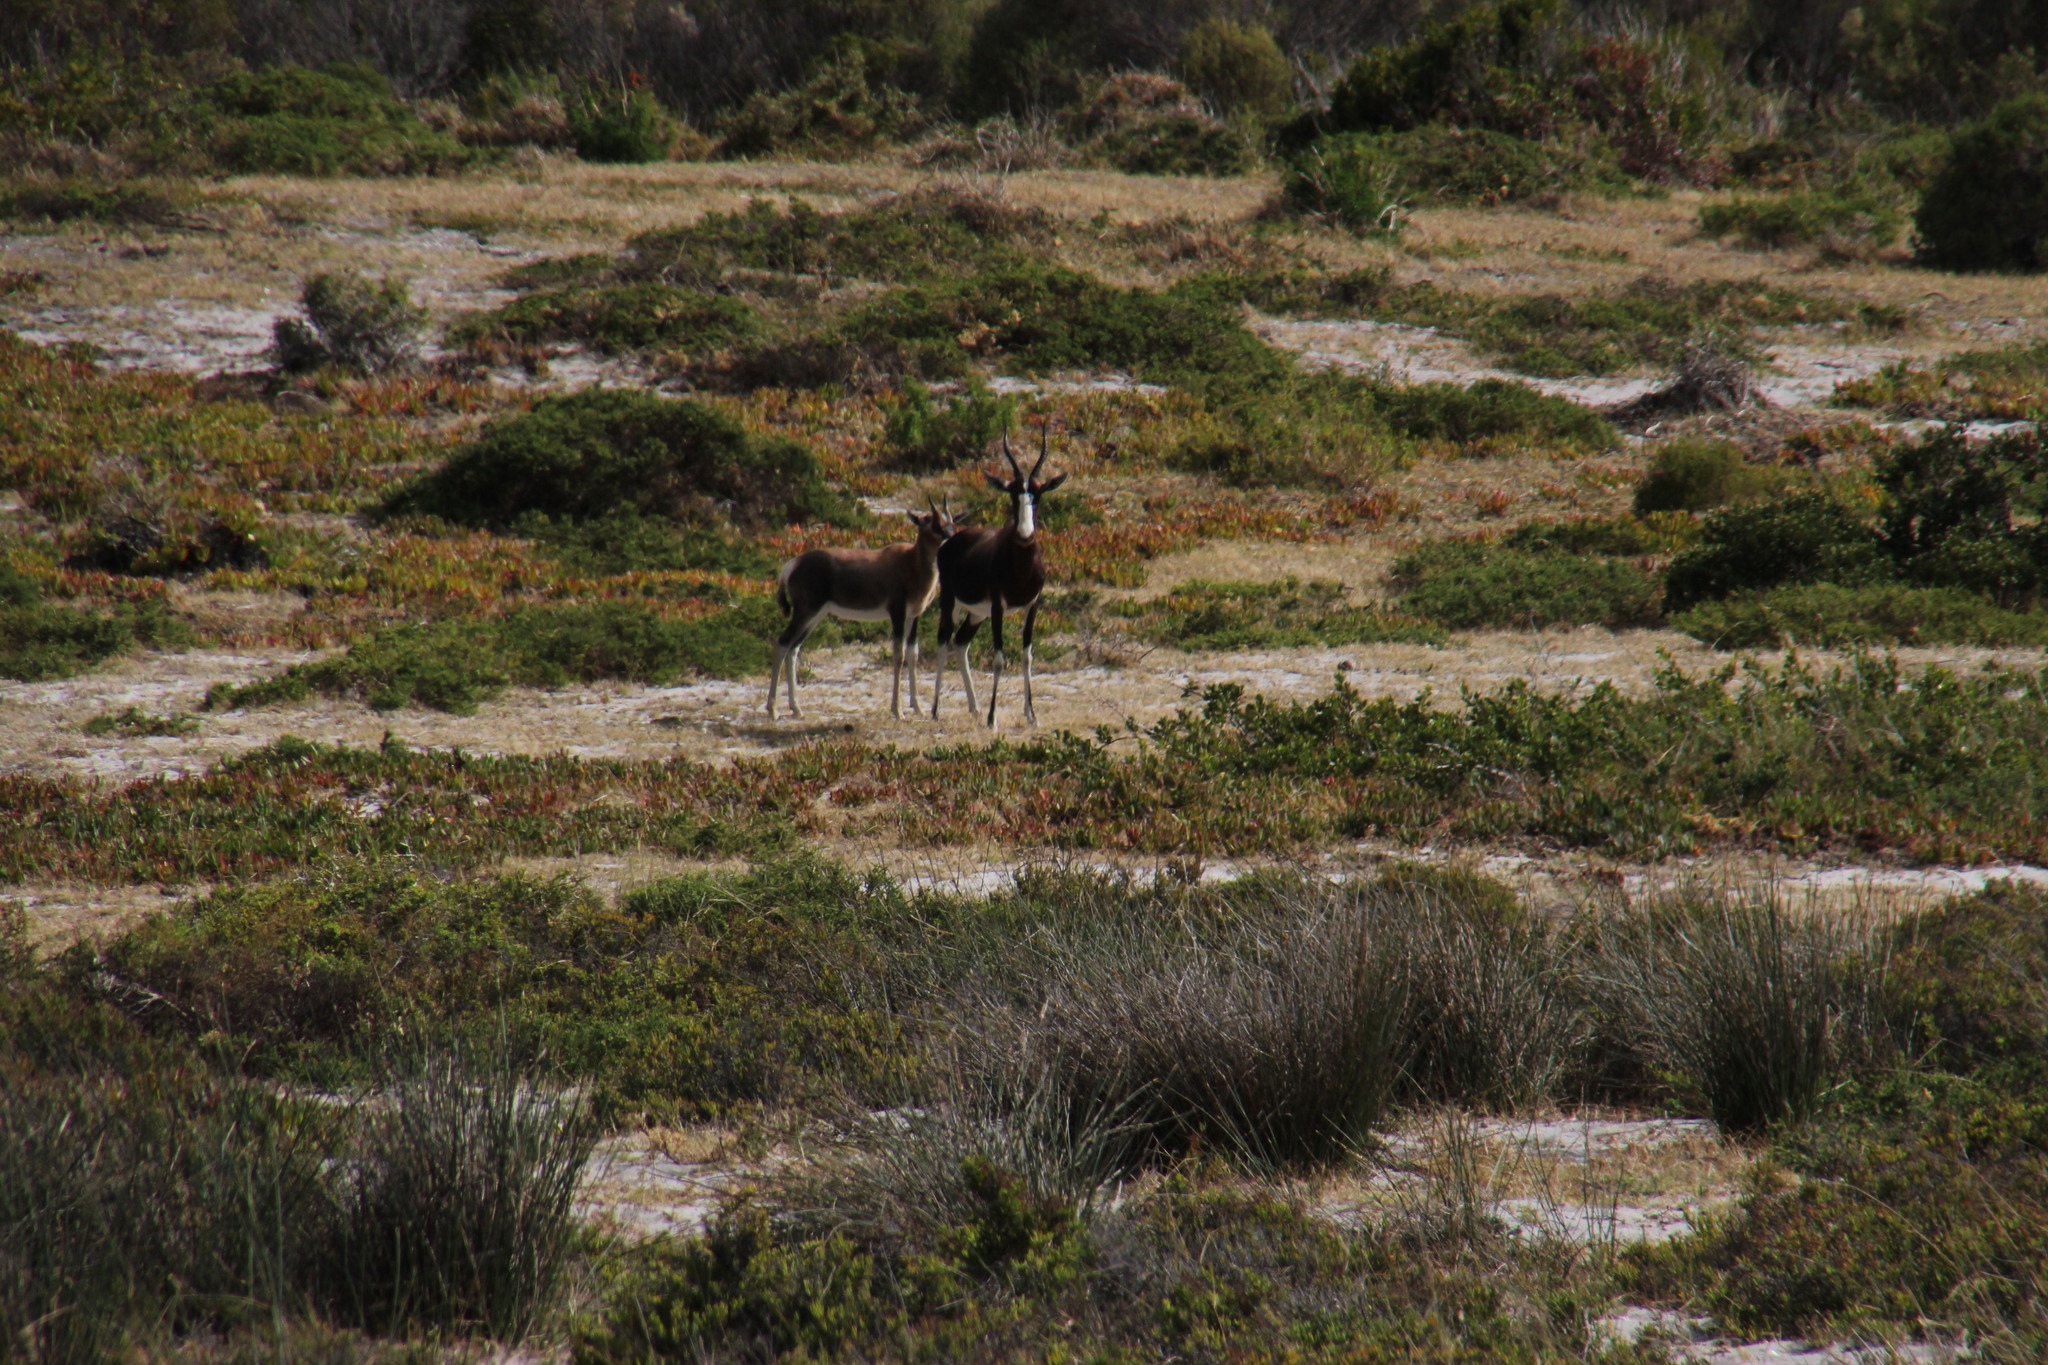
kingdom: Animalia
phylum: Chordata
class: Mammalia
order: Artiodactyla
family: Bovidae
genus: Damaliscus
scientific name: Damaliscus pygargus
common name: Bontebok
